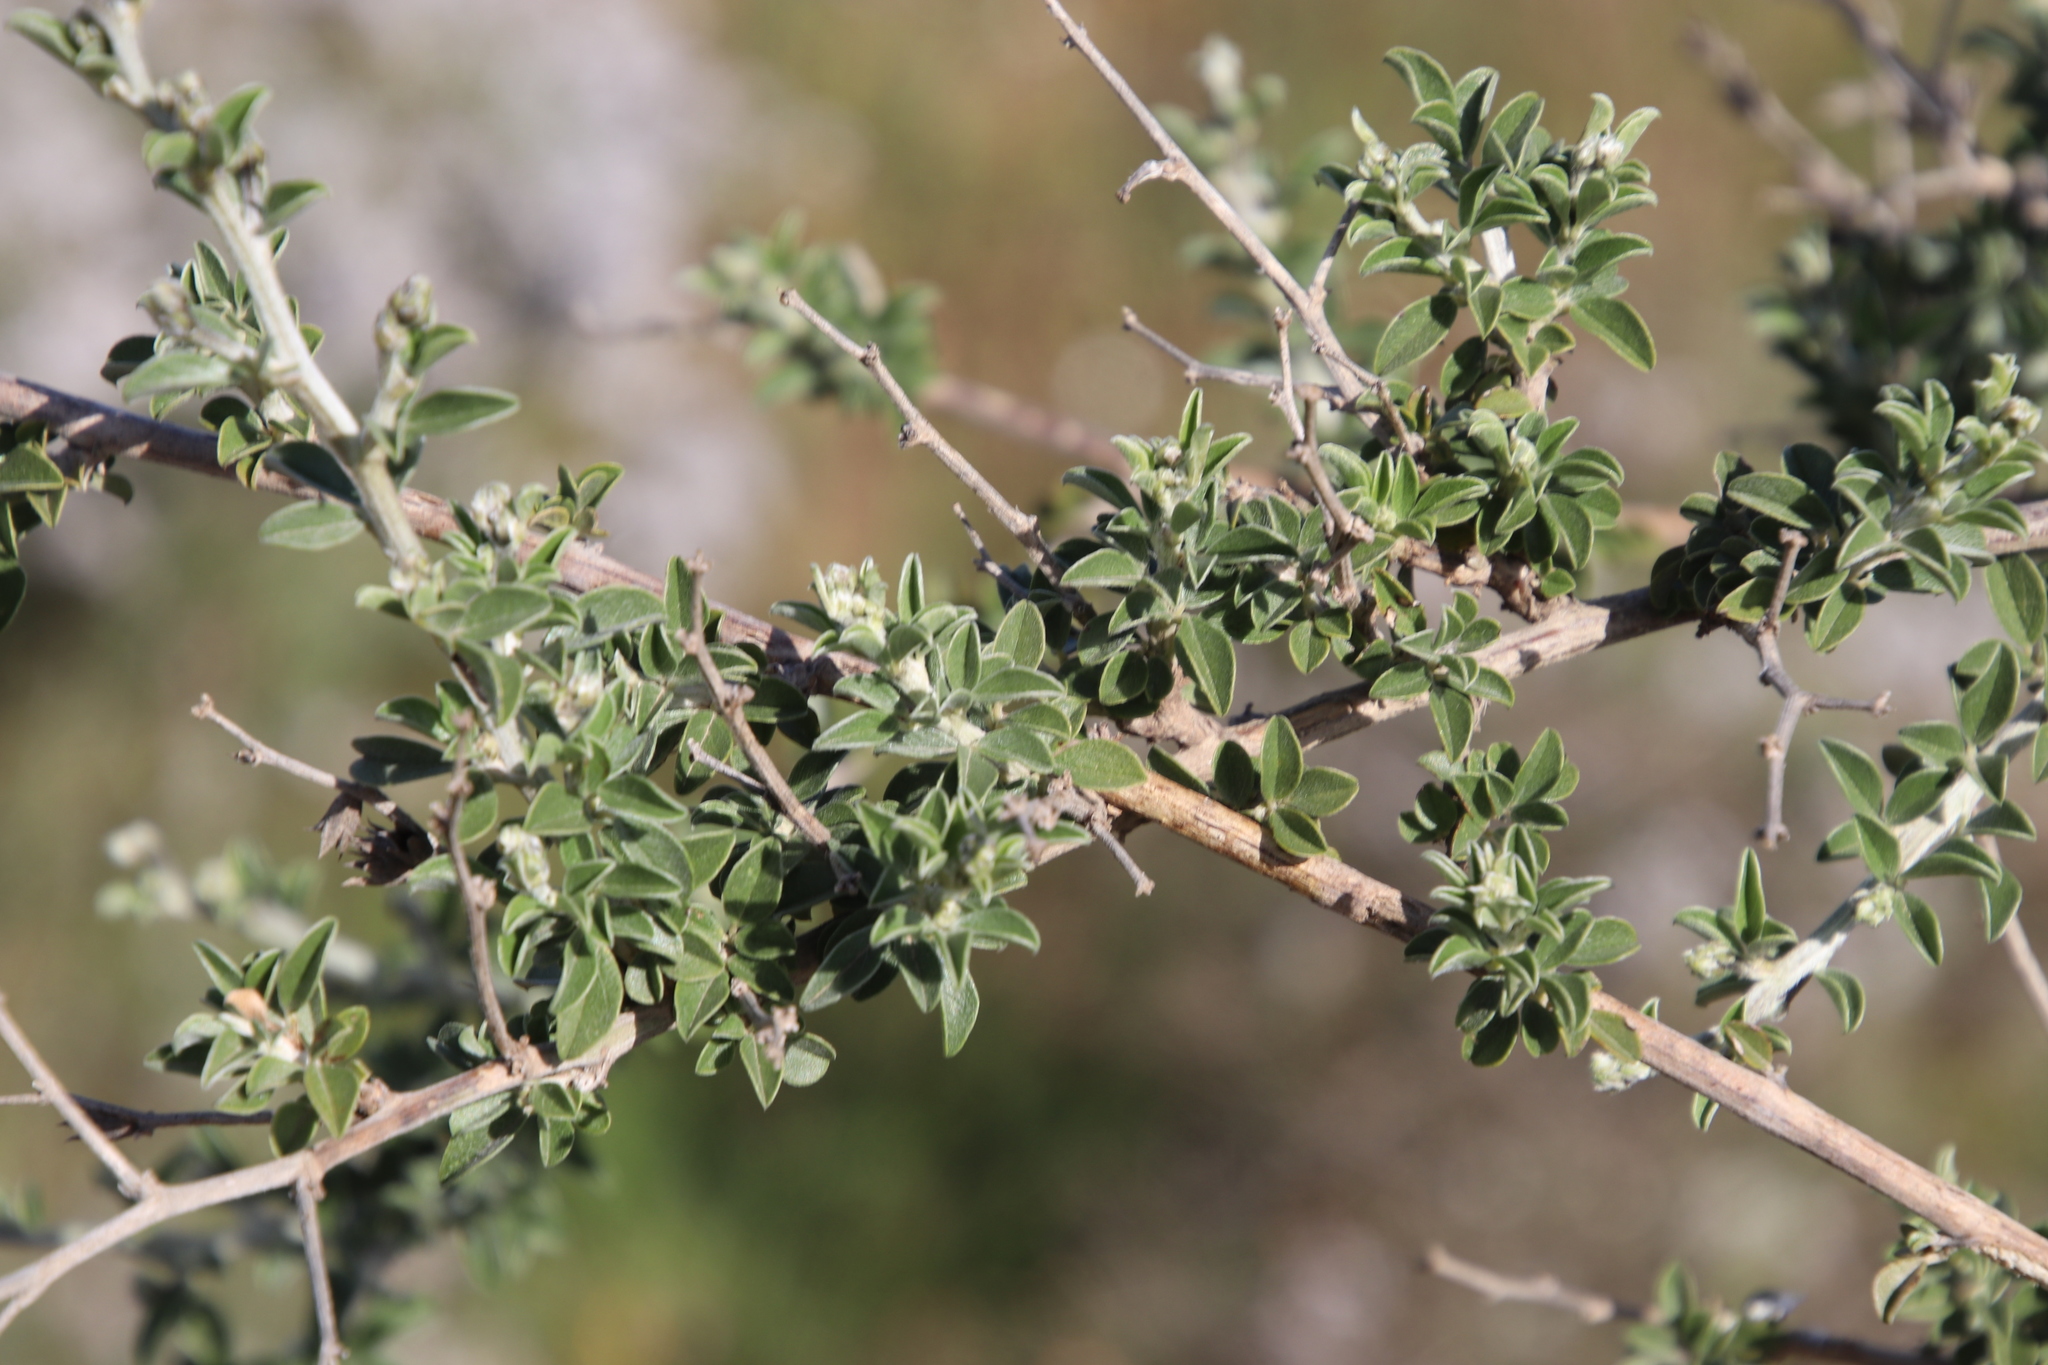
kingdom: Plantae
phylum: Tracheophyta
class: Magnoliopsida
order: Fabales
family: Fabaceae
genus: Psoralea
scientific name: Psoralea hirta
